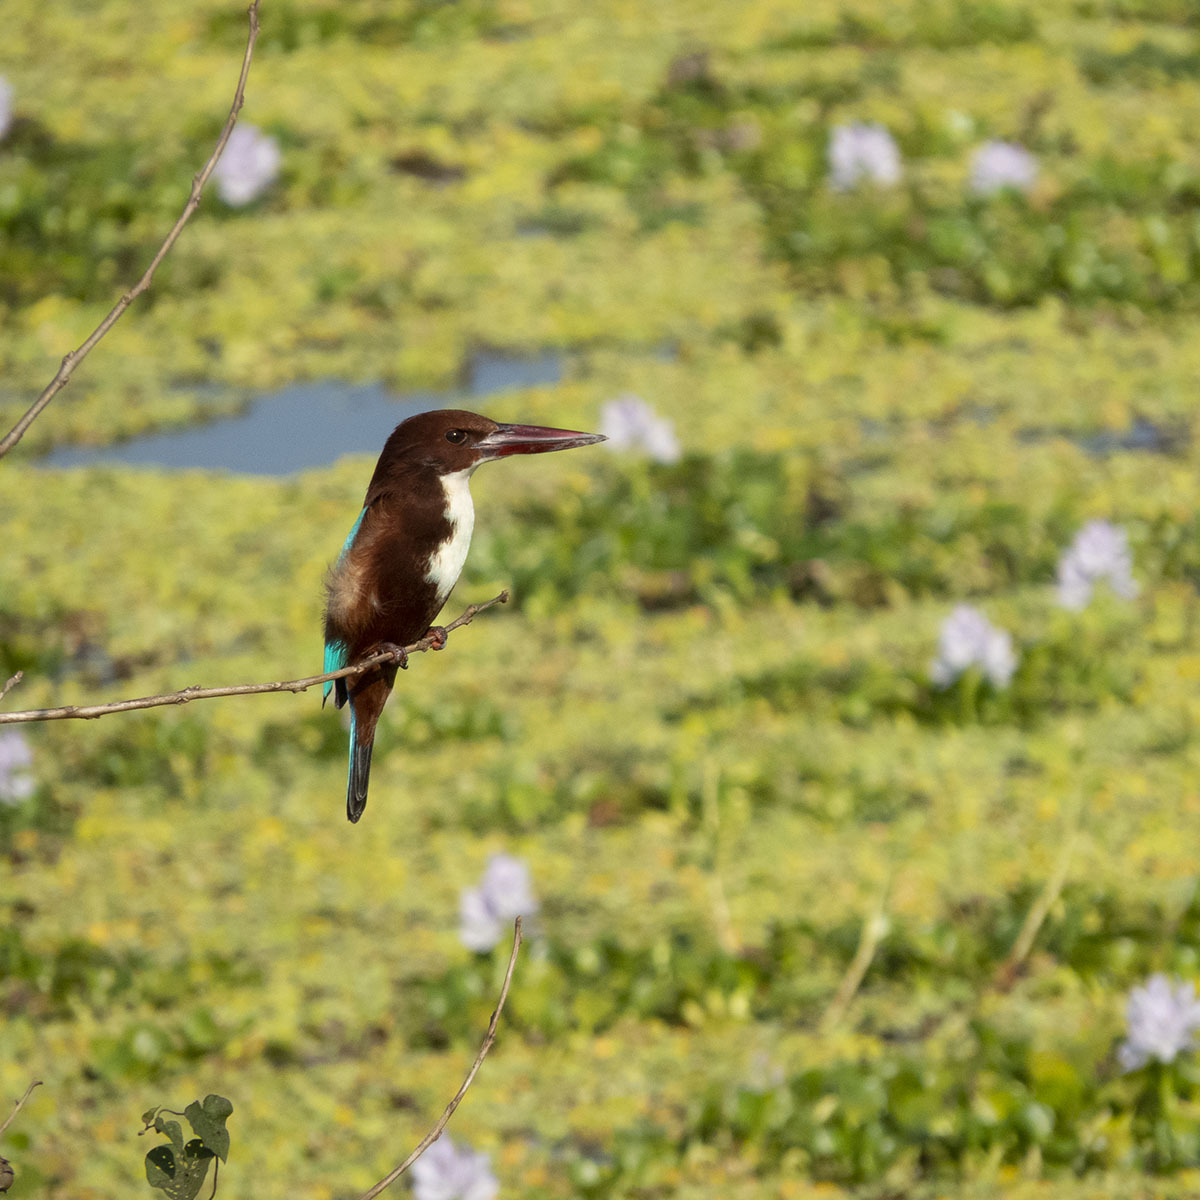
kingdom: Animalia
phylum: Chordata
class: Aves
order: Coraciiformes
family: Alcedinidae
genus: Halcyon
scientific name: Halcyon smyrnensis
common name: White-throated kingfisher
